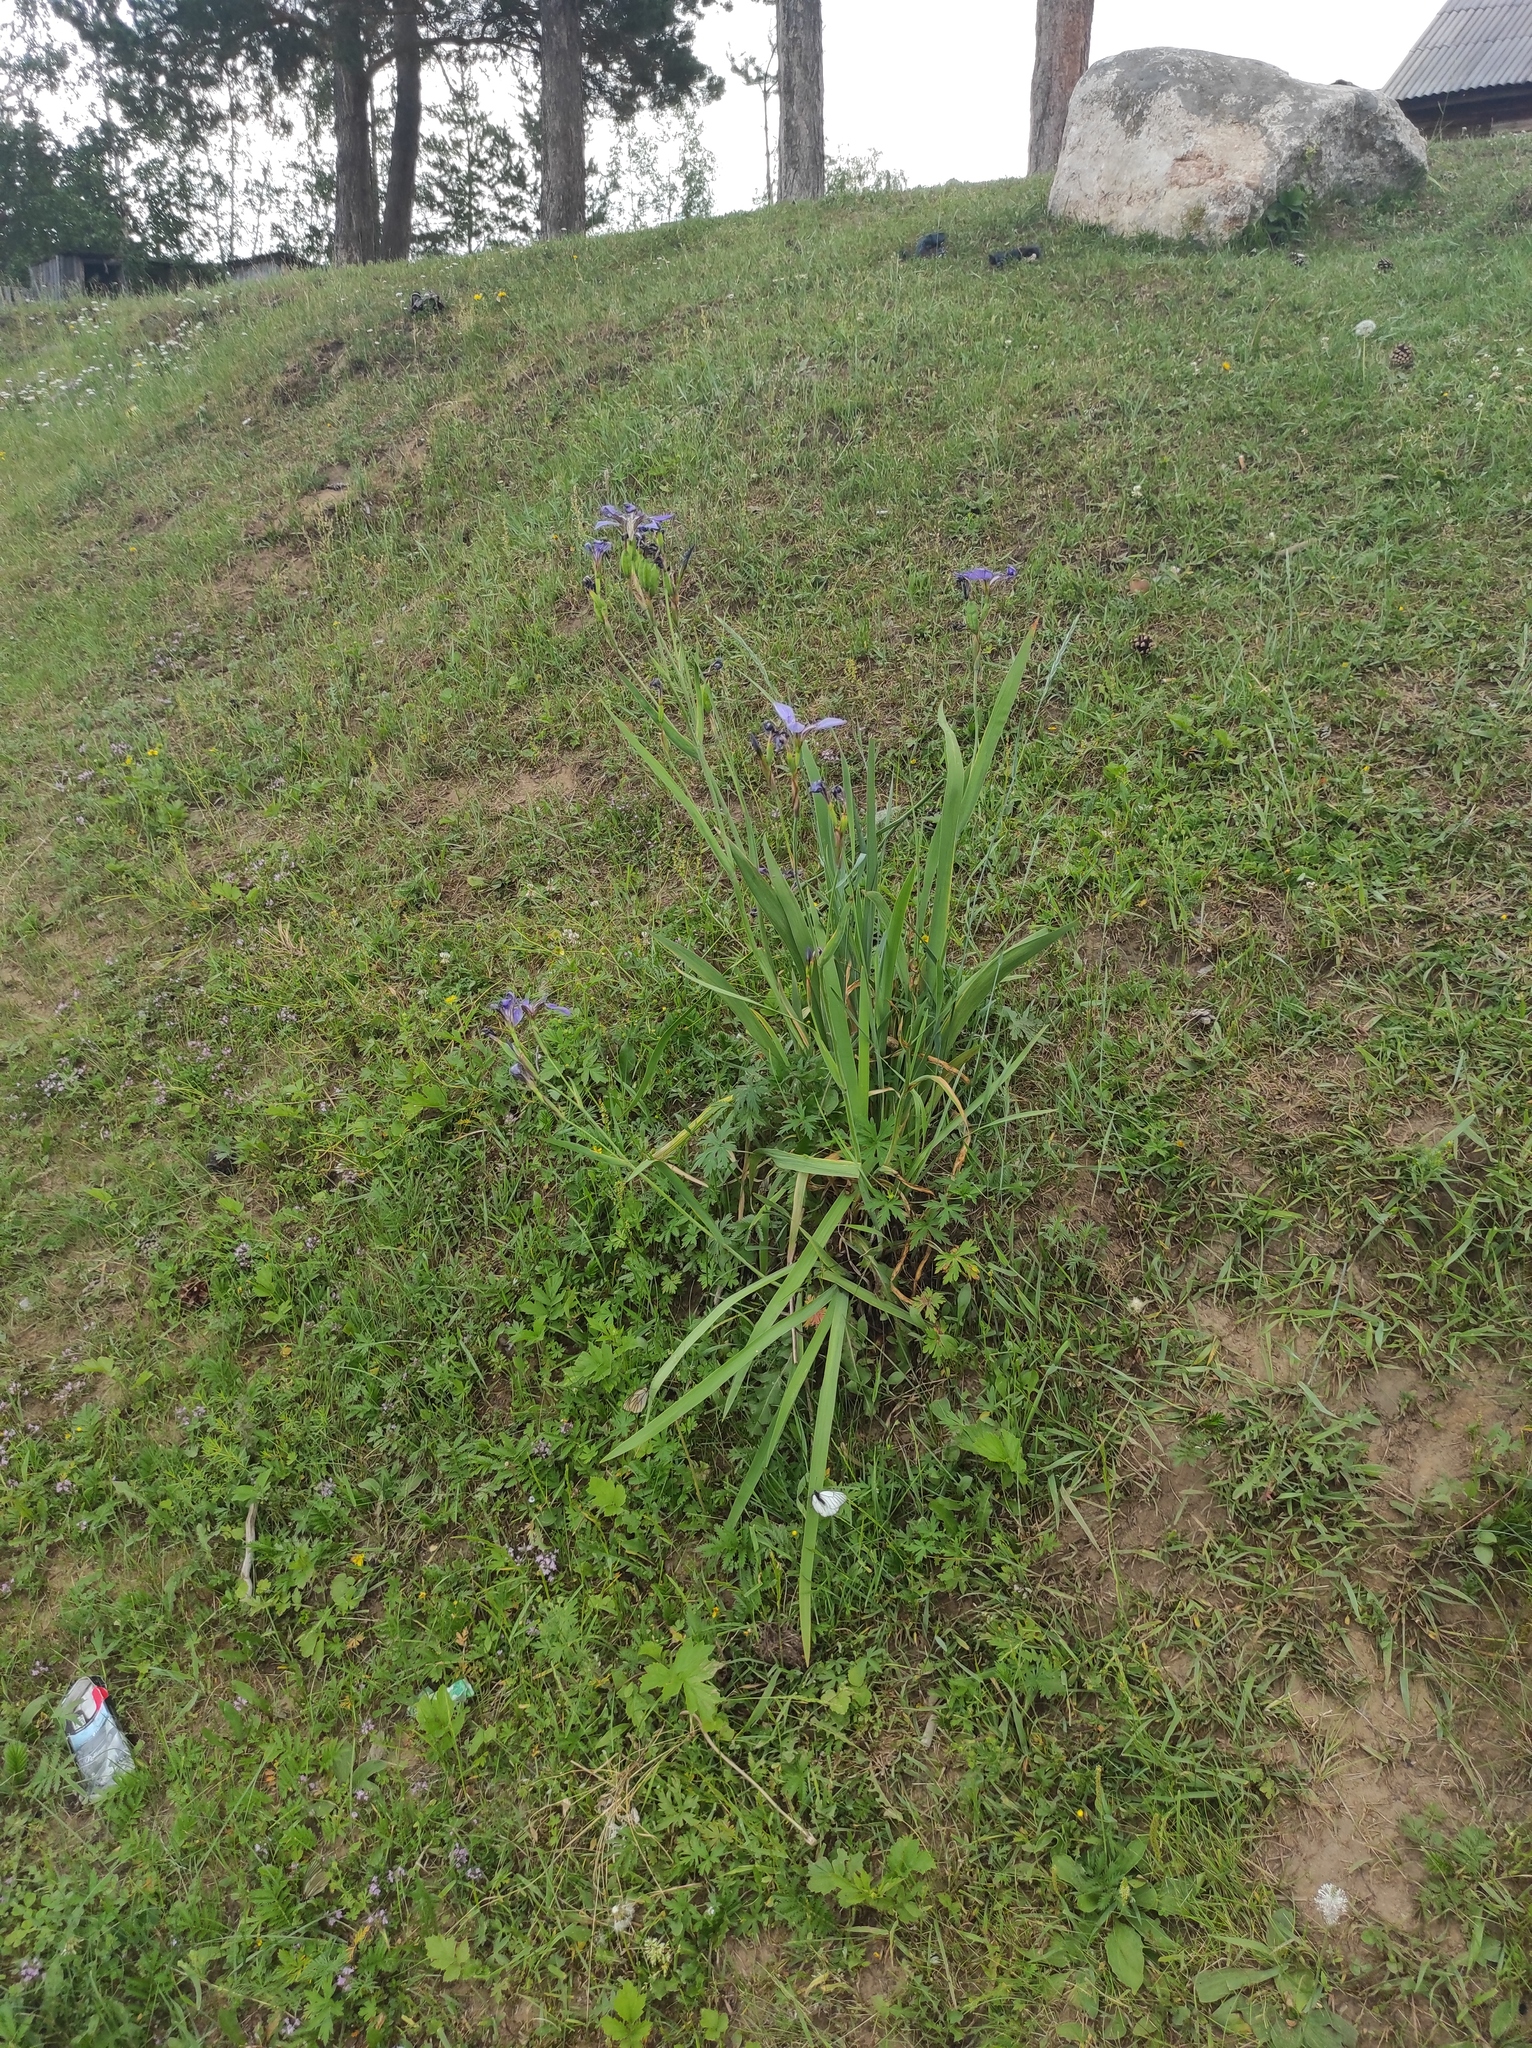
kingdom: Plantae
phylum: Tracheophyta
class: Liliopsida
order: Asparagales
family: Iridaceae
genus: Iris
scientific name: Iris setosa
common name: Arctic blue flag
